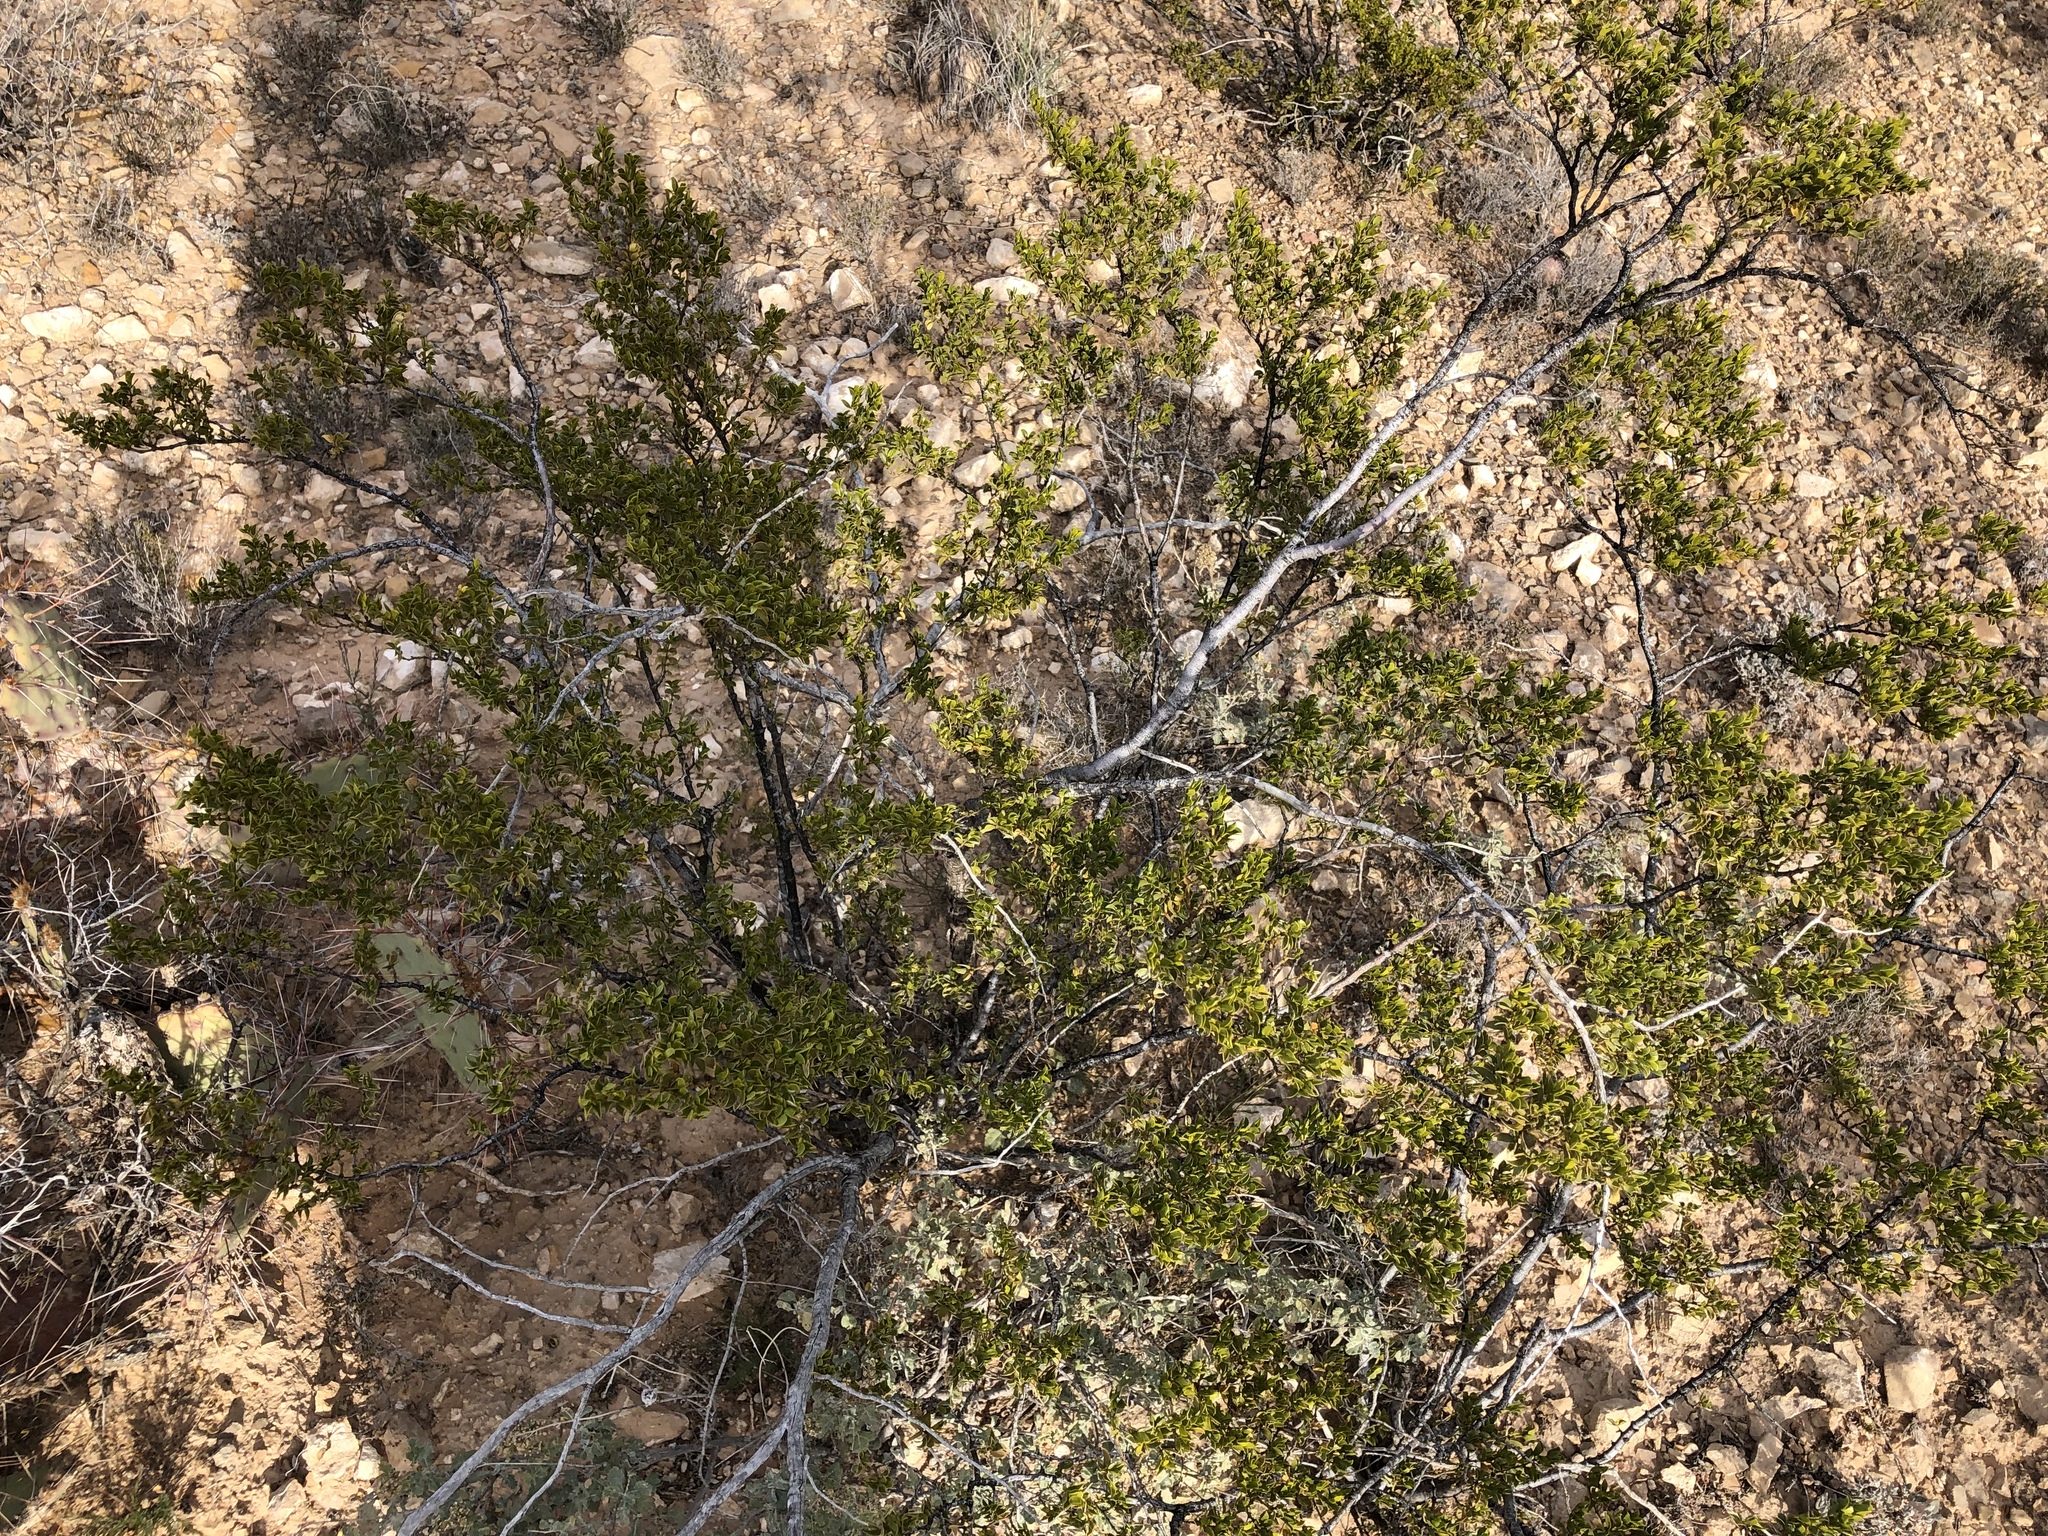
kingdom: Plantae
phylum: Tracheophyta
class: Magnoliopsida
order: Zygophyllales
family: Zygophyllaceae
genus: Larrea
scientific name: Larrea tridentata
